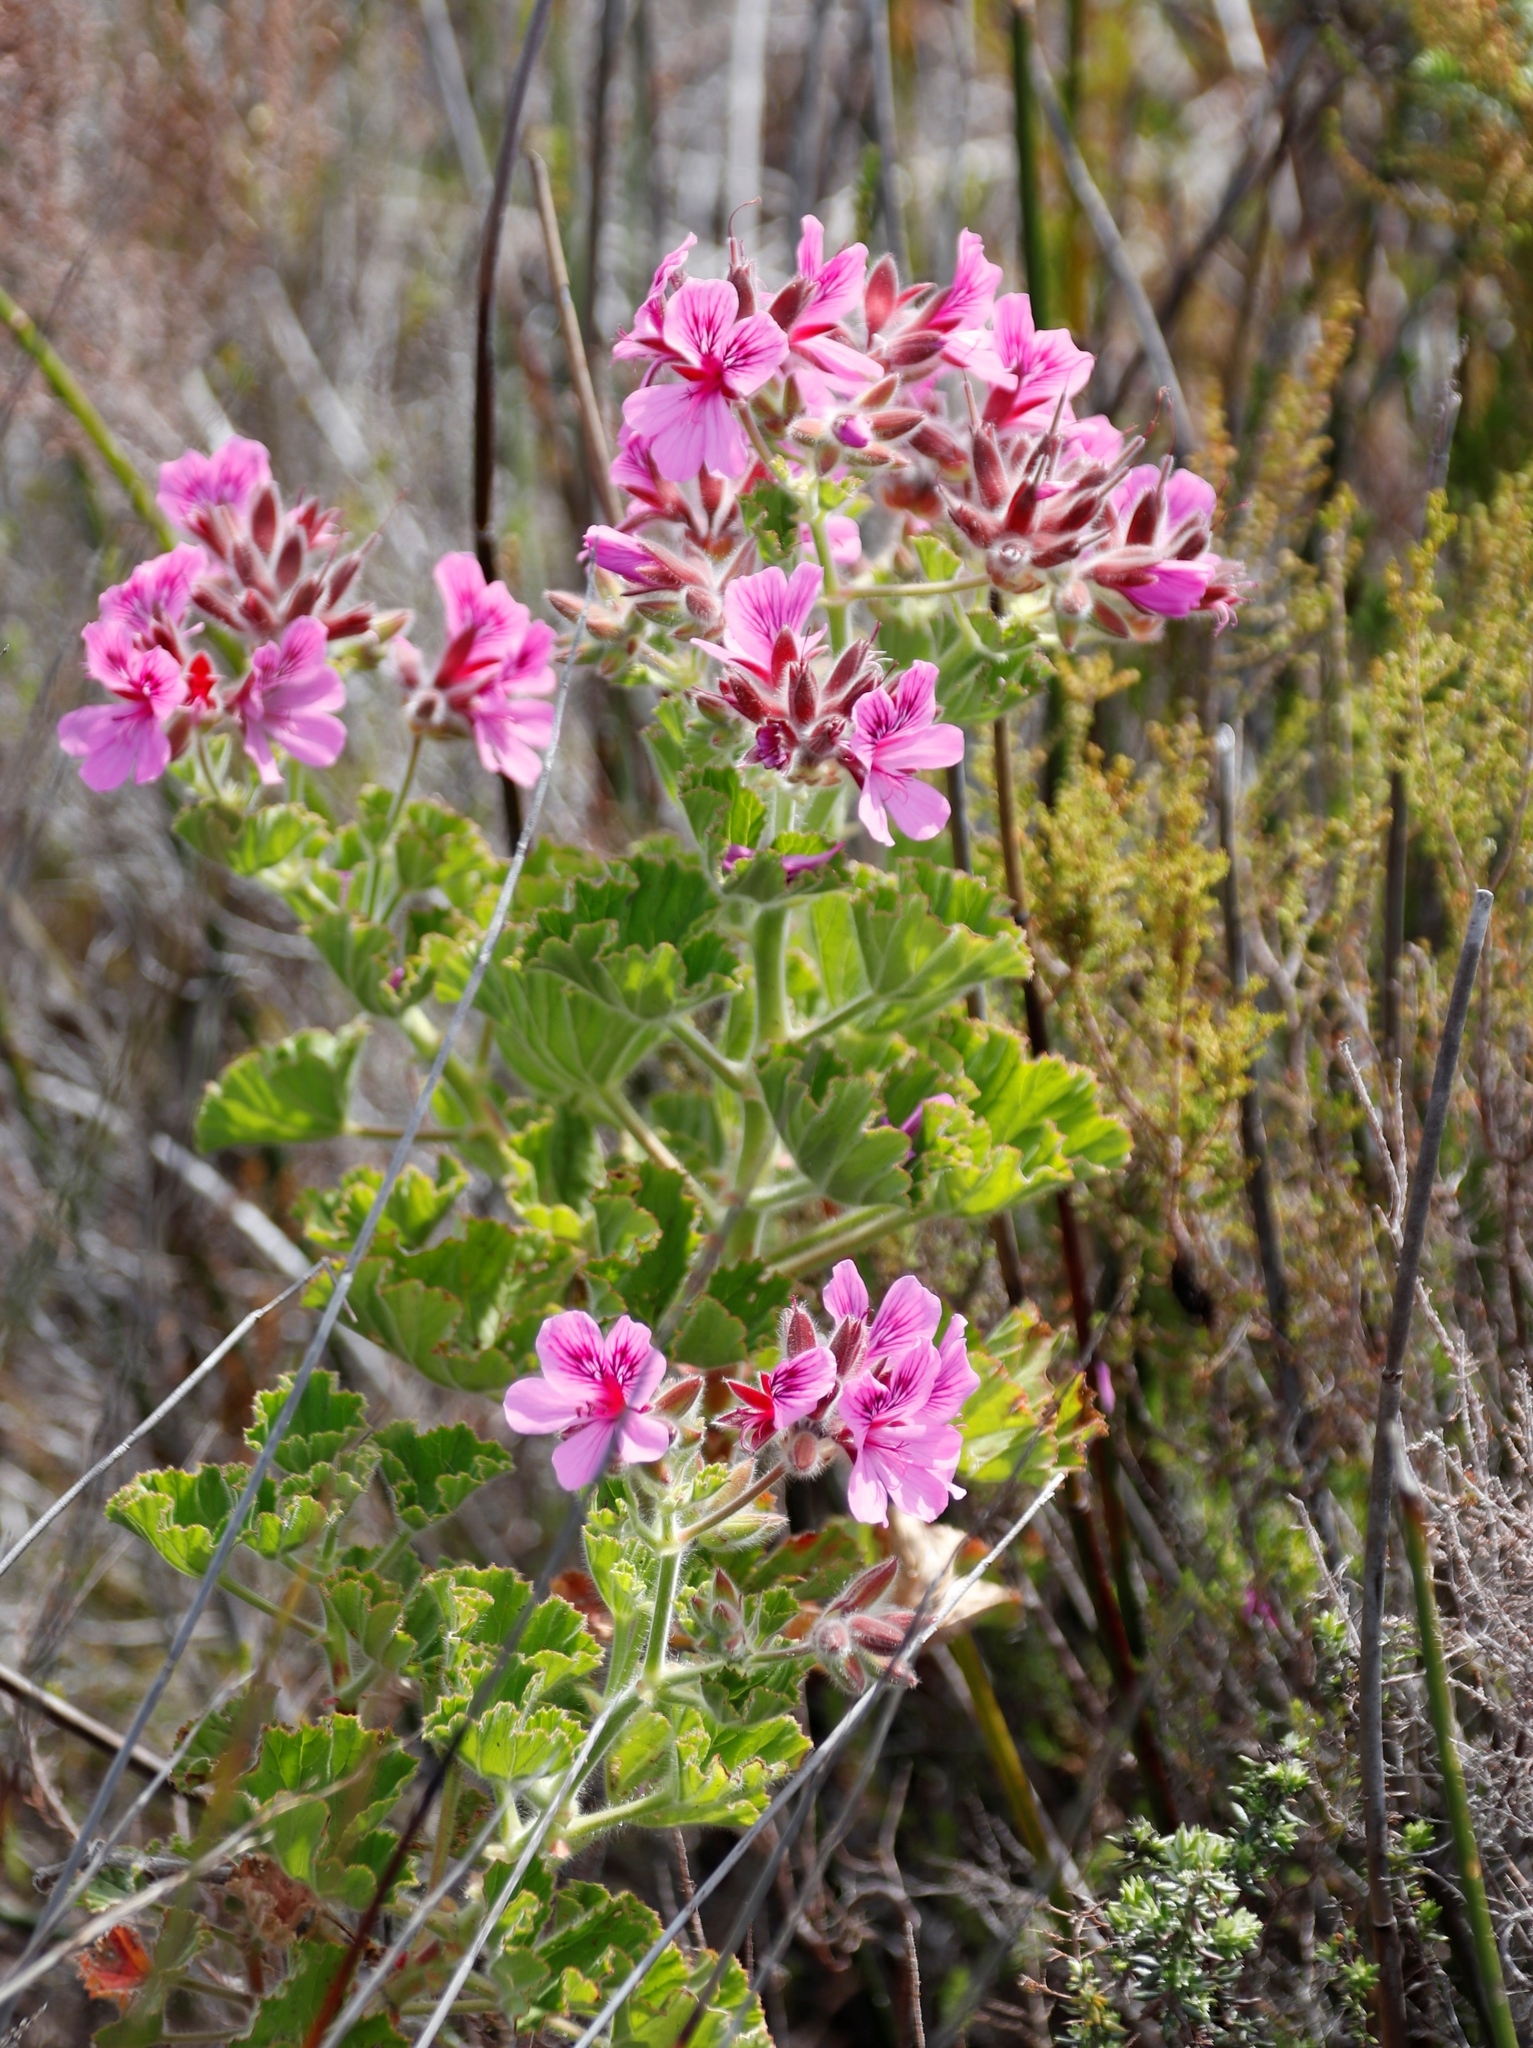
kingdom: Plantae
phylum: Tracheophyta
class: Magnoliopsida
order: Geraniales
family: Geraniaceae
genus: Pelargonium
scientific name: Pelargonium cucullatum
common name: Tree pelargonium
